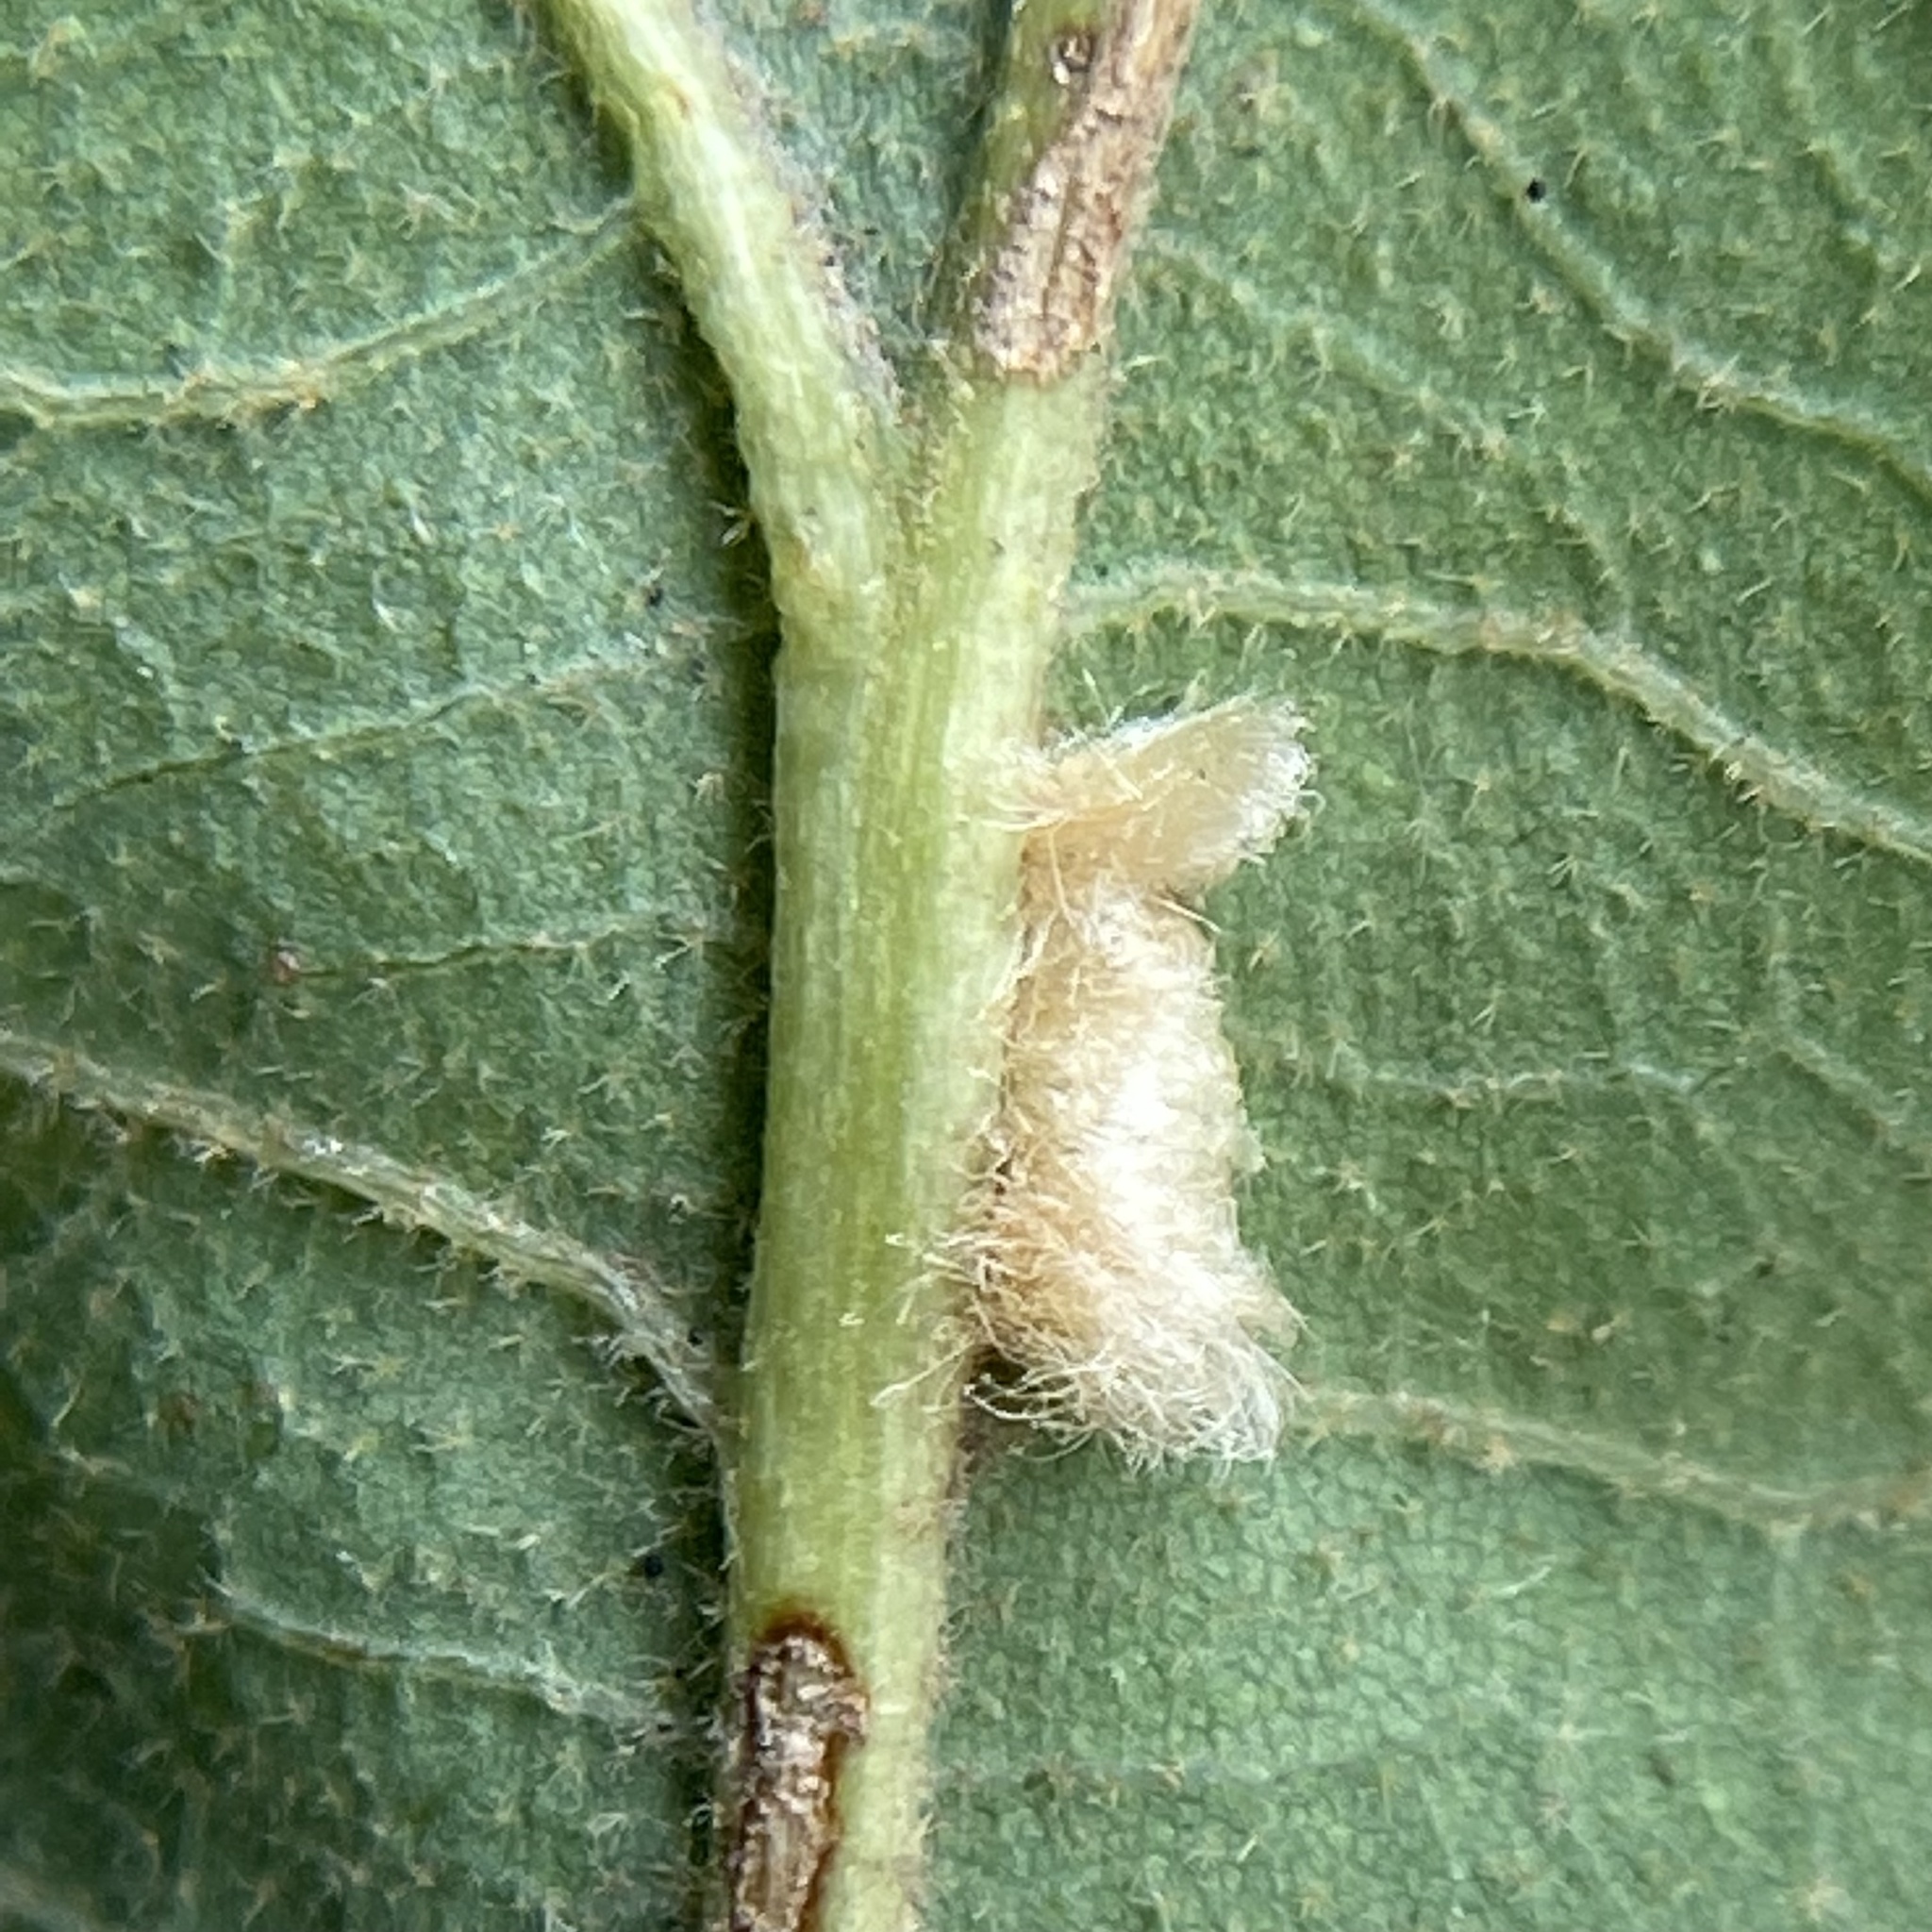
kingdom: Animalia
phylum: Arthropoda
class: Insecta
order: Hymenoptera
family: Cynipidae
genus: Andricus
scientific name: Andricus Druon pattoni
